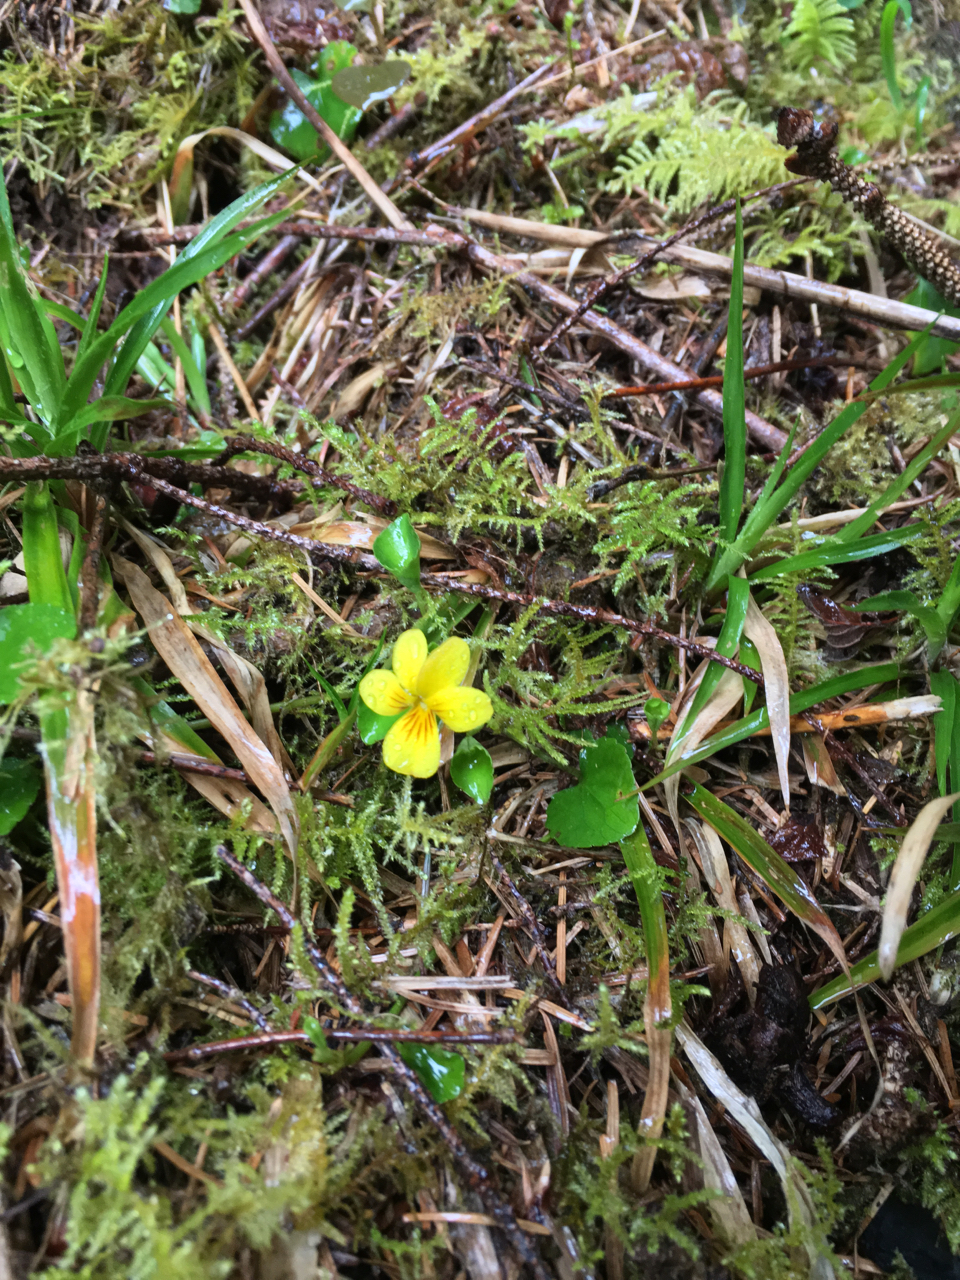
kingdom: Plantae
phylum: Tracheophyta
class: Magnoliopsida
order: Malpighiales
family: Violaceae
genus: Viola
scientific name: Viola sempervirens
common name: Evergreen violet
